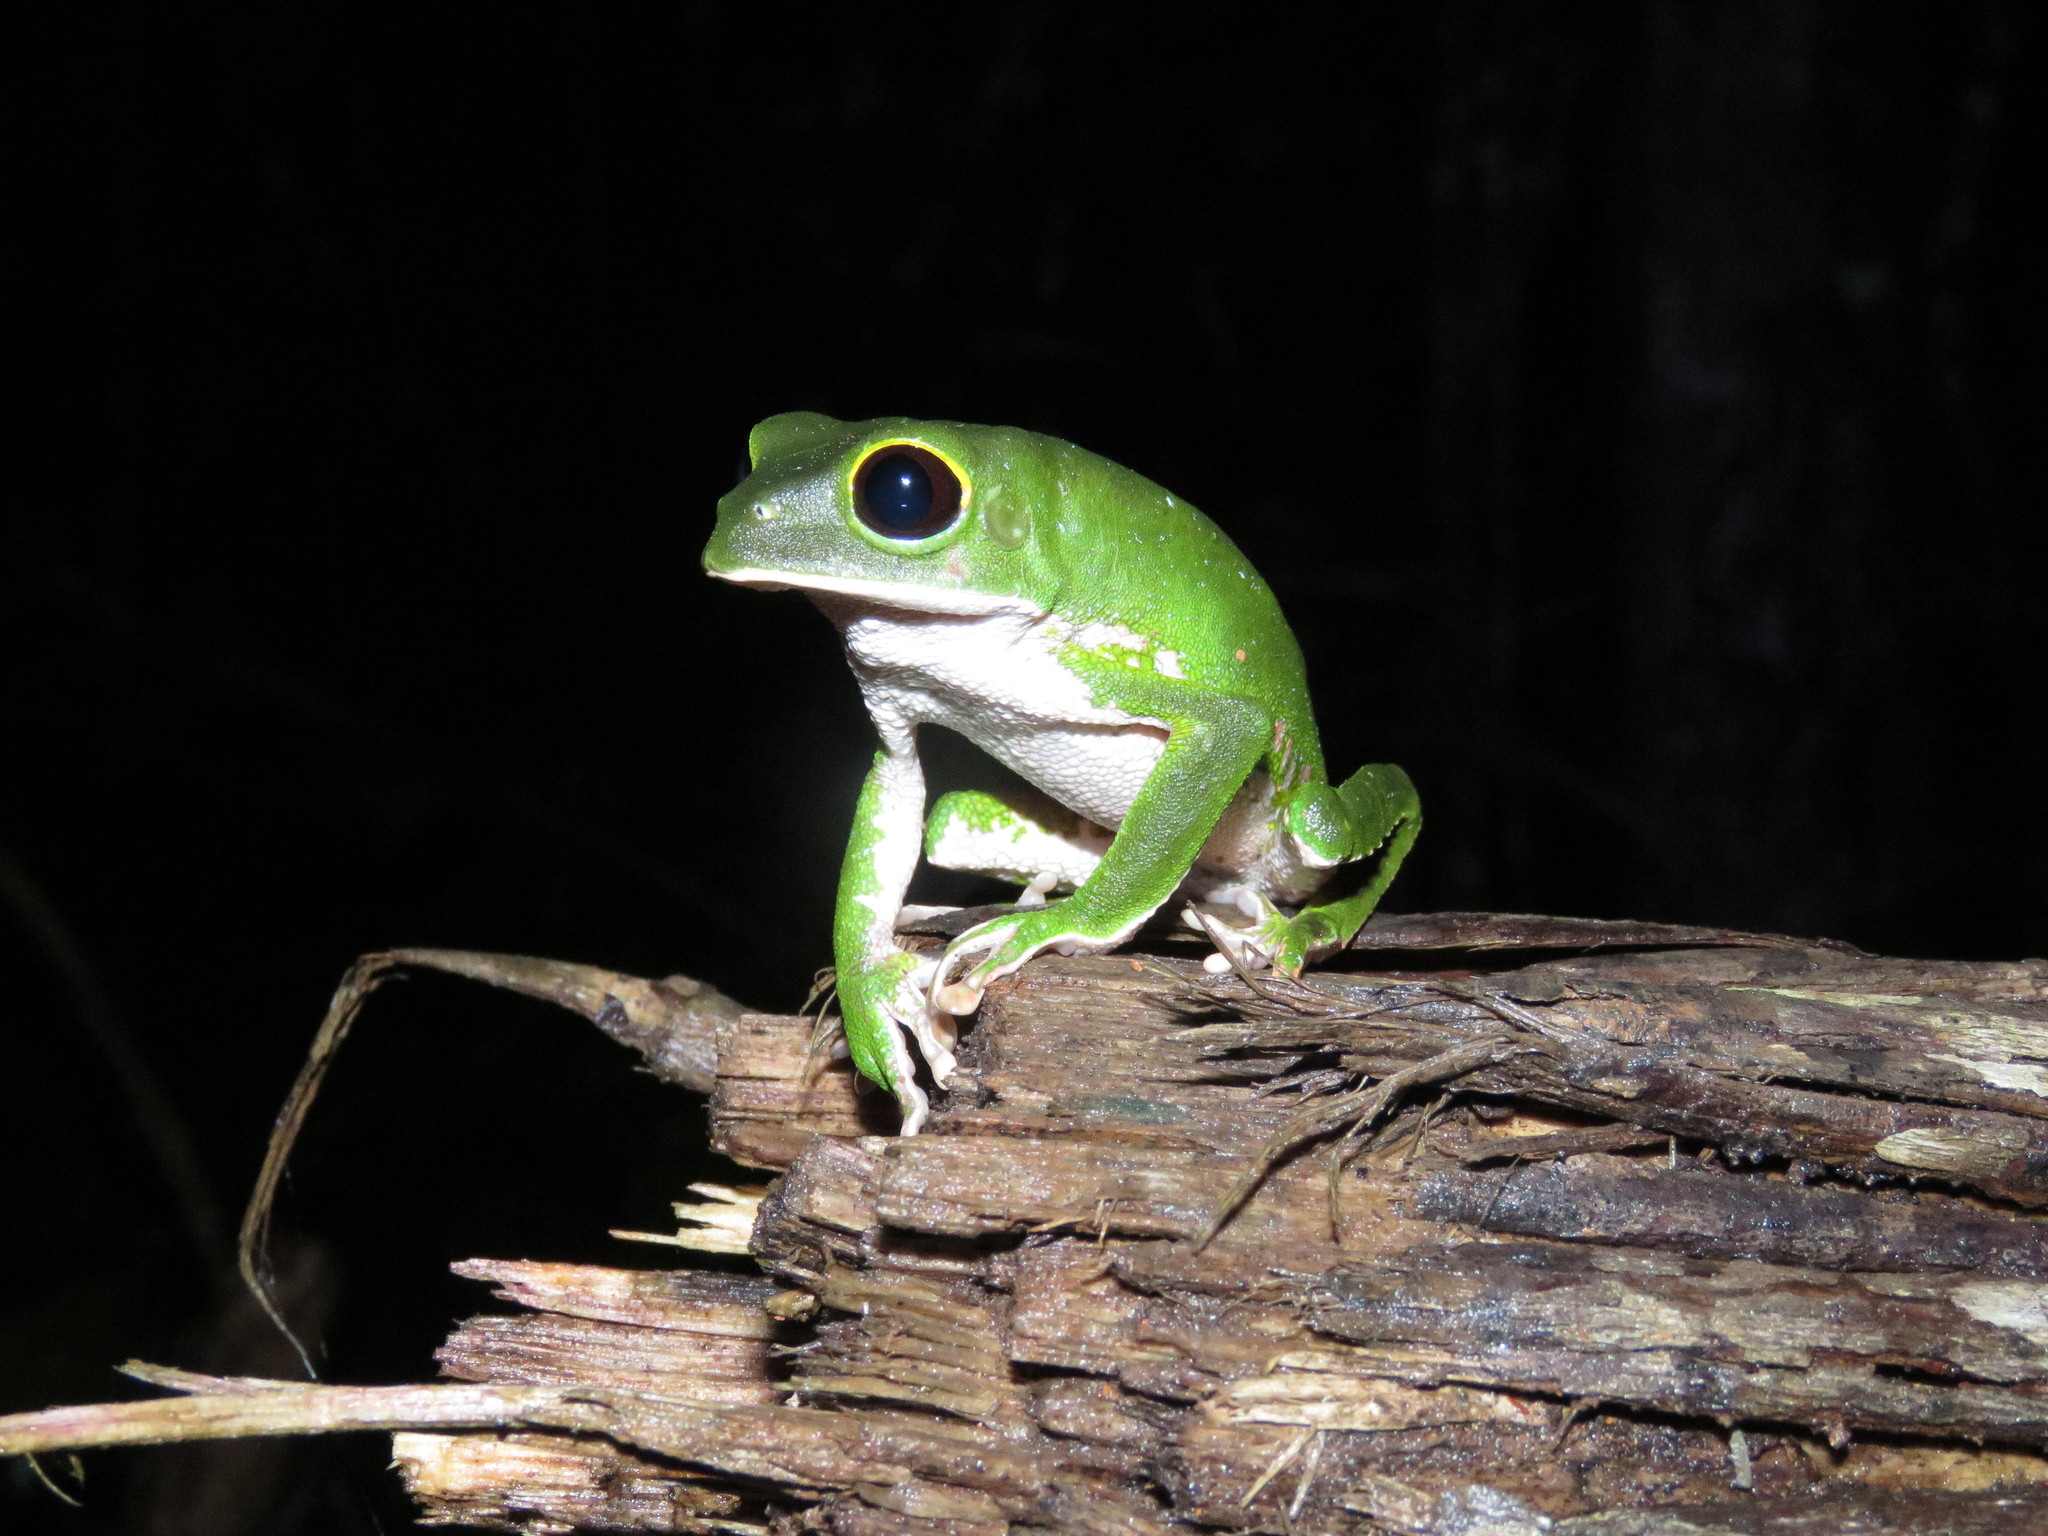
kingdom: Animalia
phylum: Chordata
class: Amphibia
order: Anura
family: Phyllomedusidae
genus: Phyllomedusa
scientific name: Phyllomedusa camba
